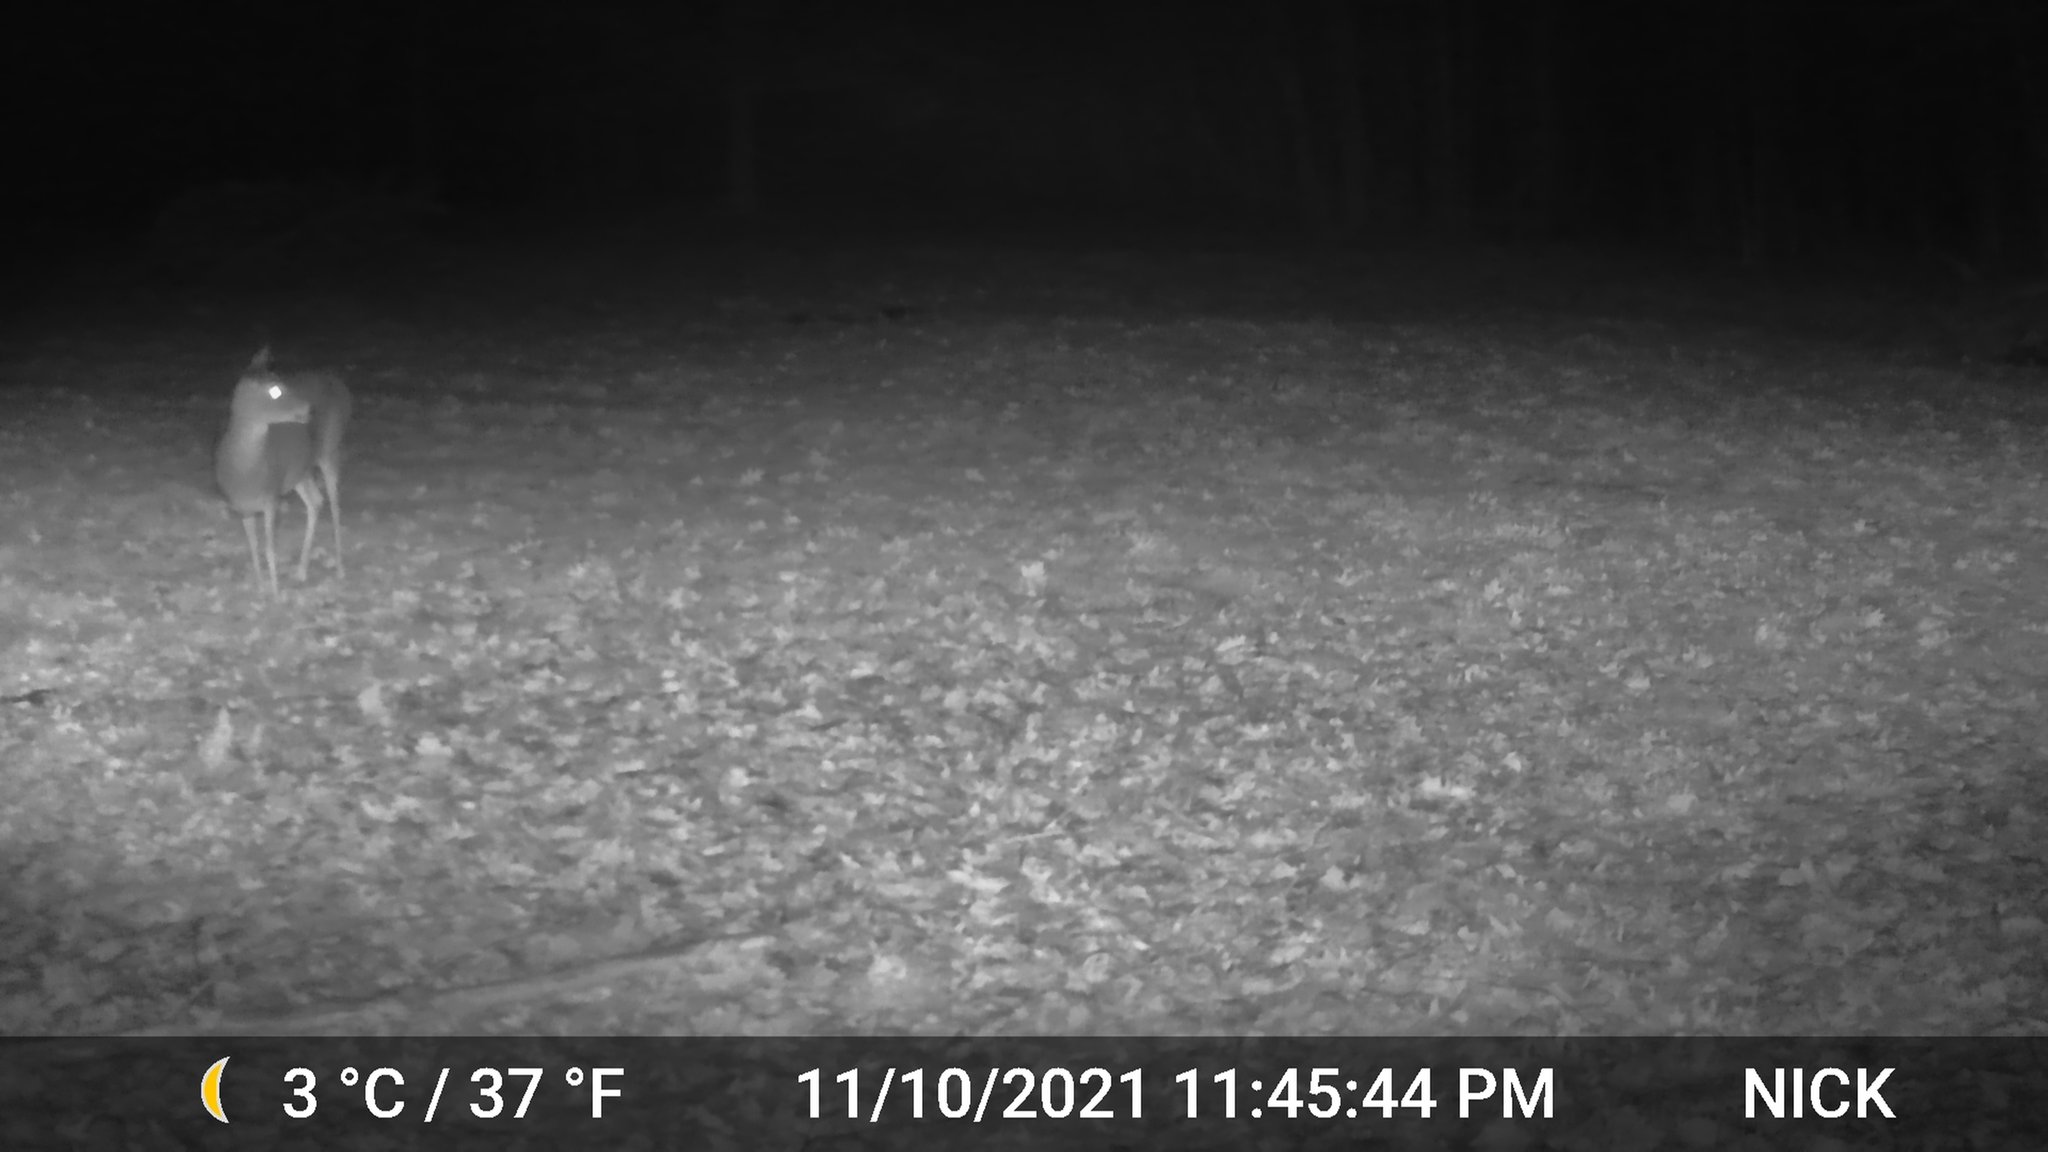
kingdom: Animalia
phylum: Chordata
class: Mammalia
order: Artiodactyla
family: Cervidae
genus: Odocoileus
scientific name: Odocoileus virginianus
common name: White-tailed deer
